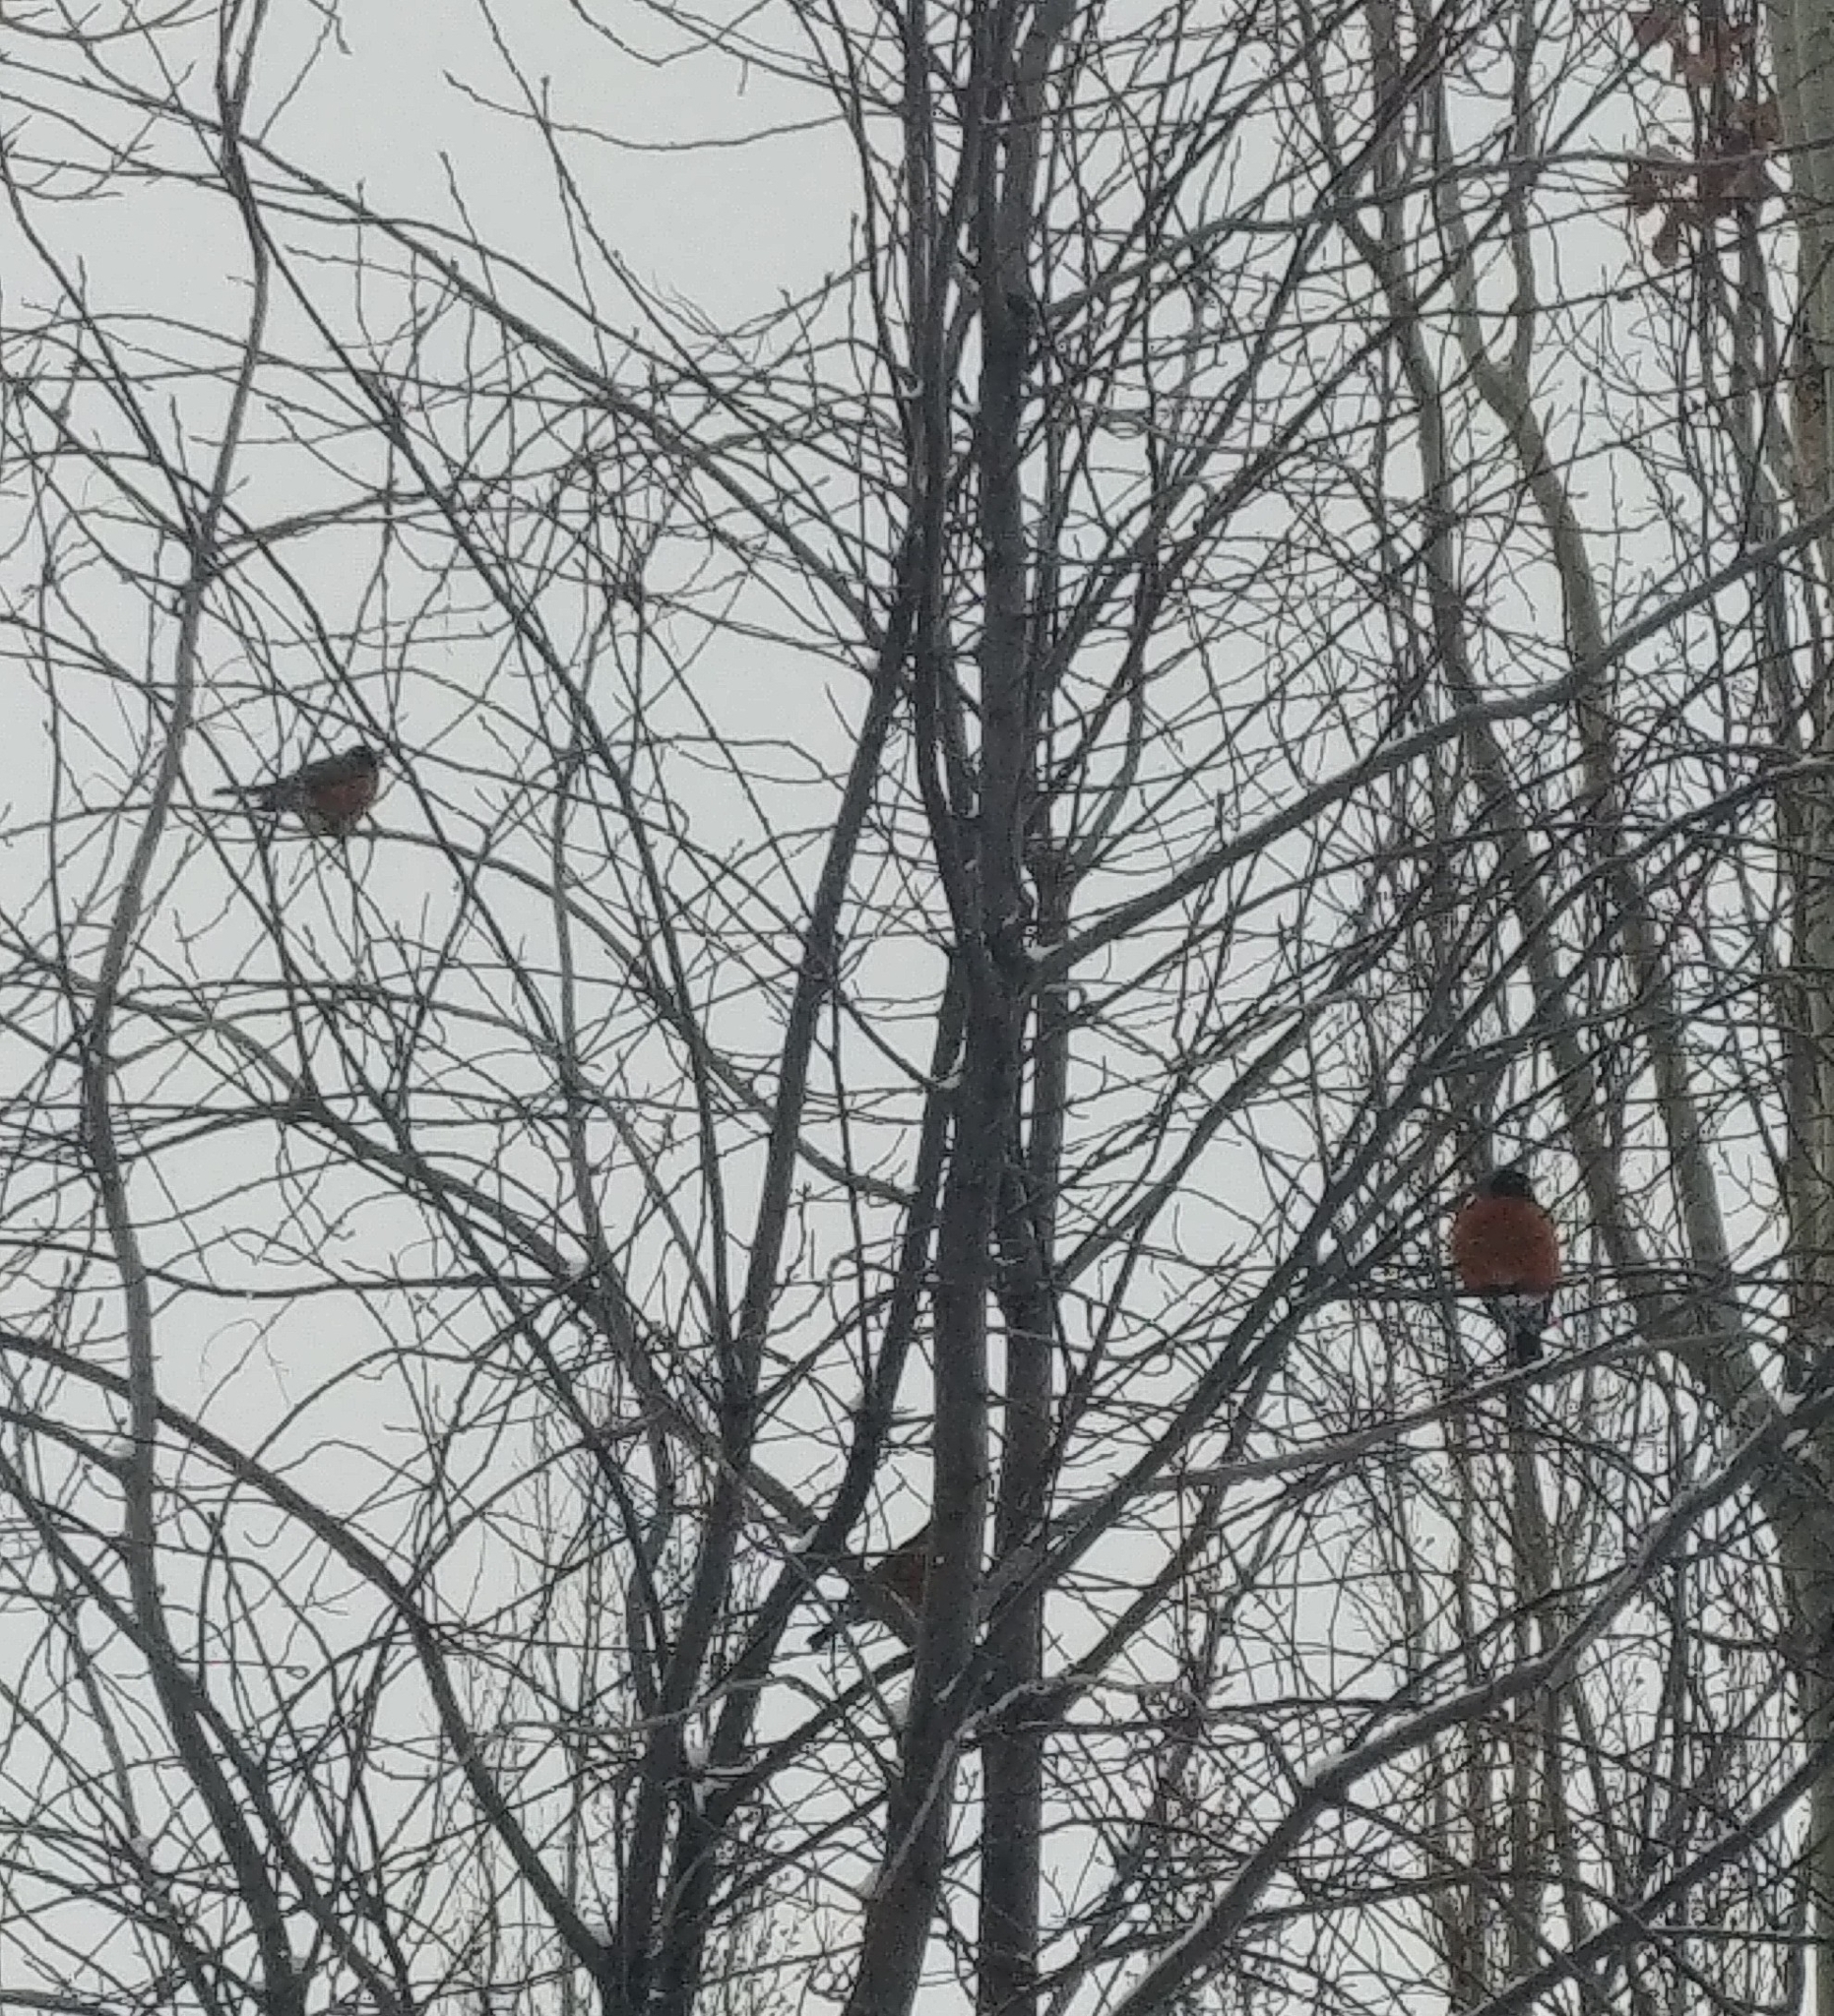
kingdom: Animalia
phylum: Chordata
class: Aves
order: Passeriformes
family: Turdidae
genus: Turdus
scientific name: Turdus migratorius
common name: American robin
